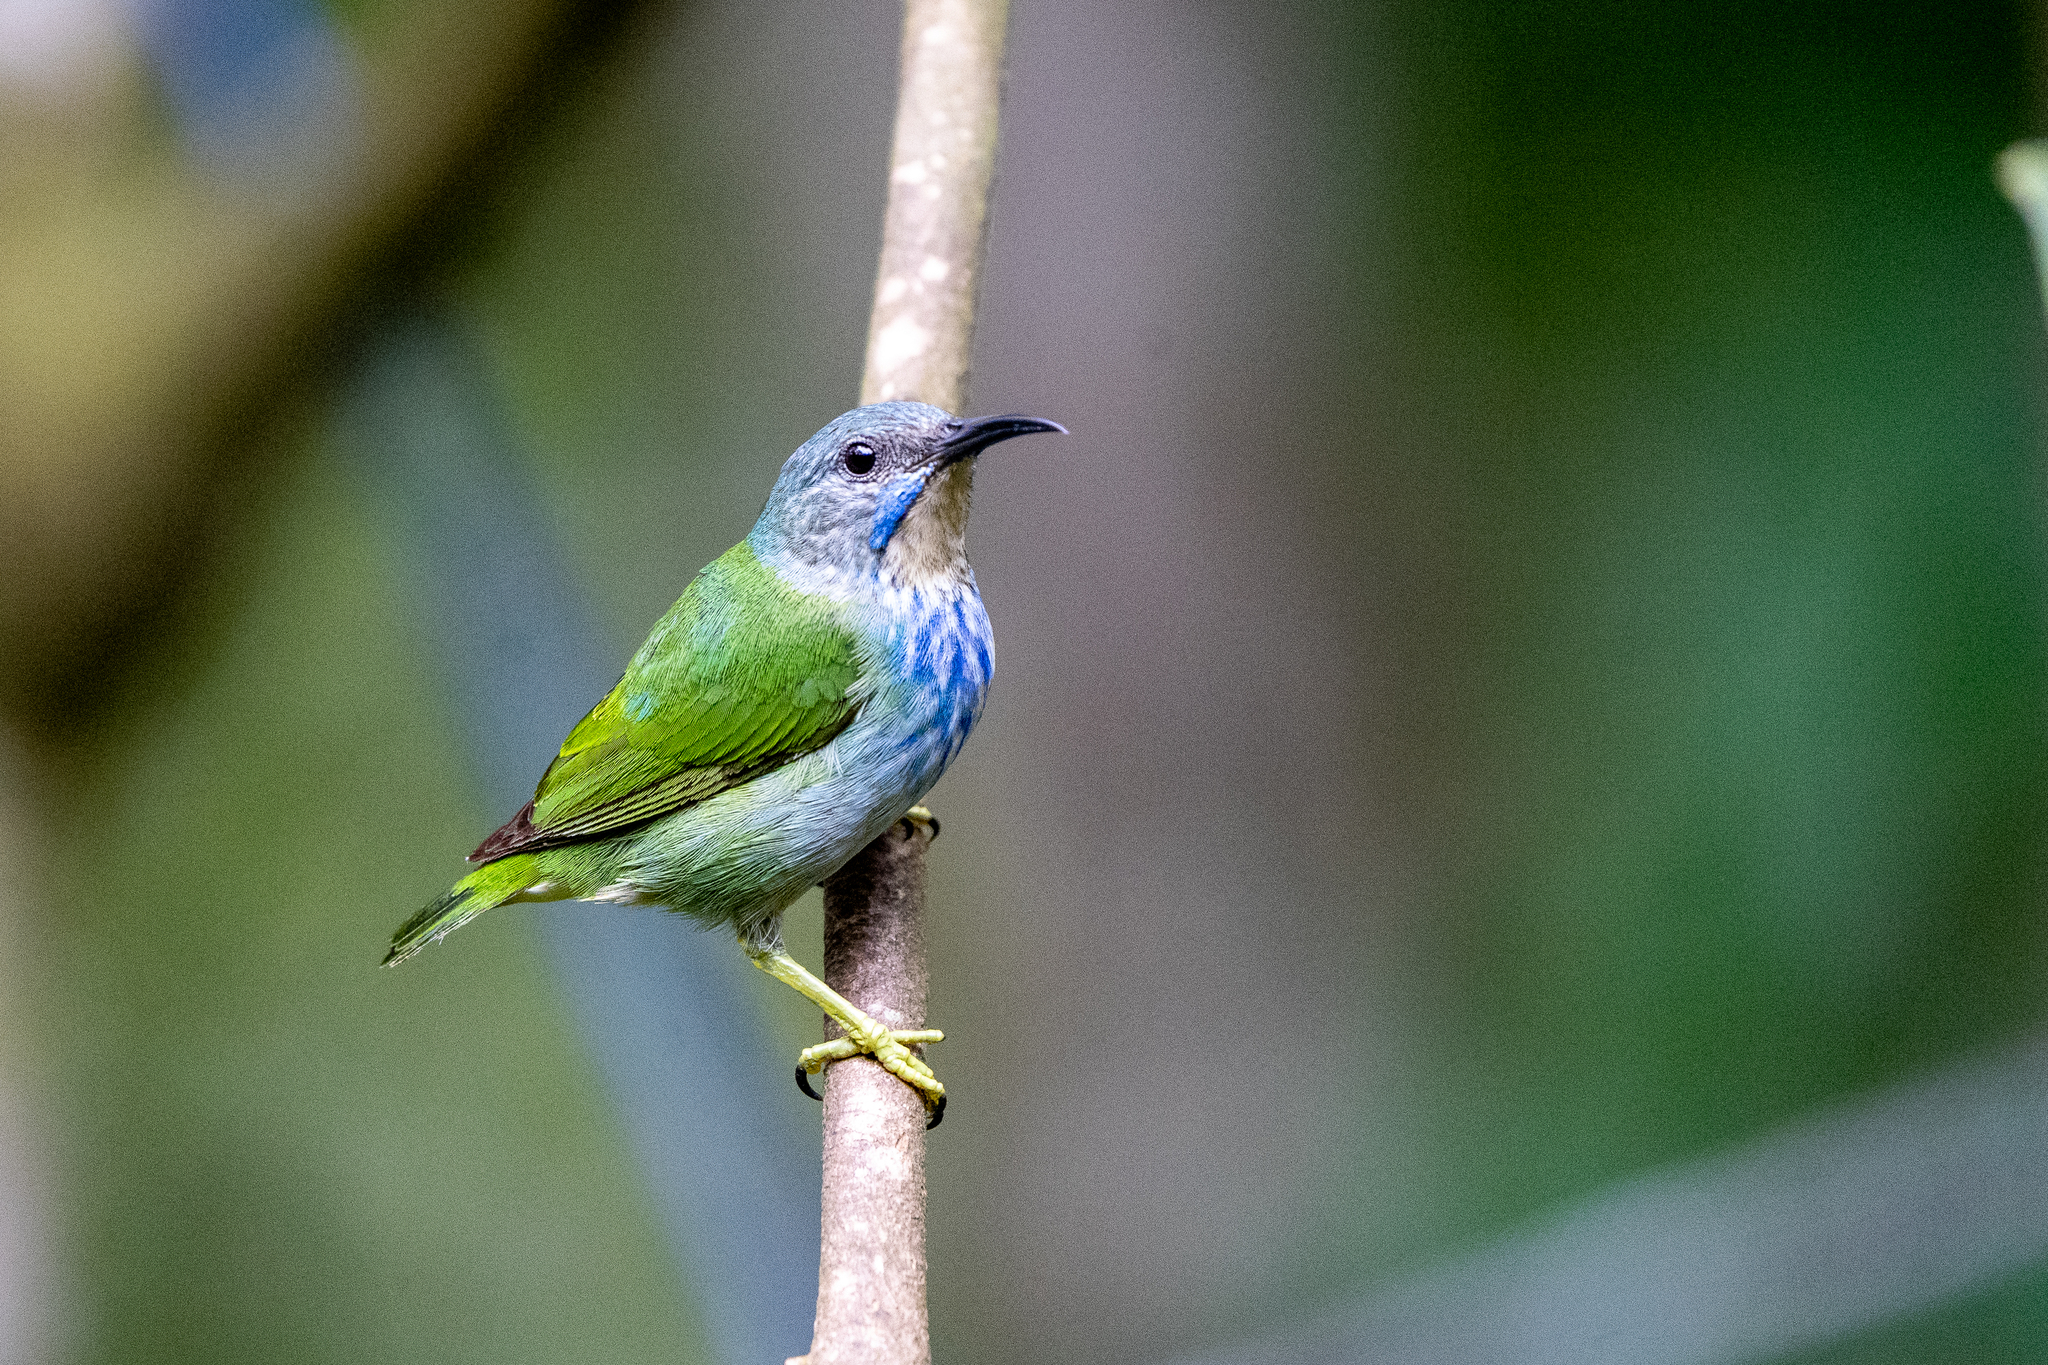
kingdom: Animalia
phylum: Chordata
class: Aves
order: Passeriformes
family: Thraupidae
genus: Cyanerpes
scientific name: Cyanerpes lucidus
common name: Shining honeycreeper
